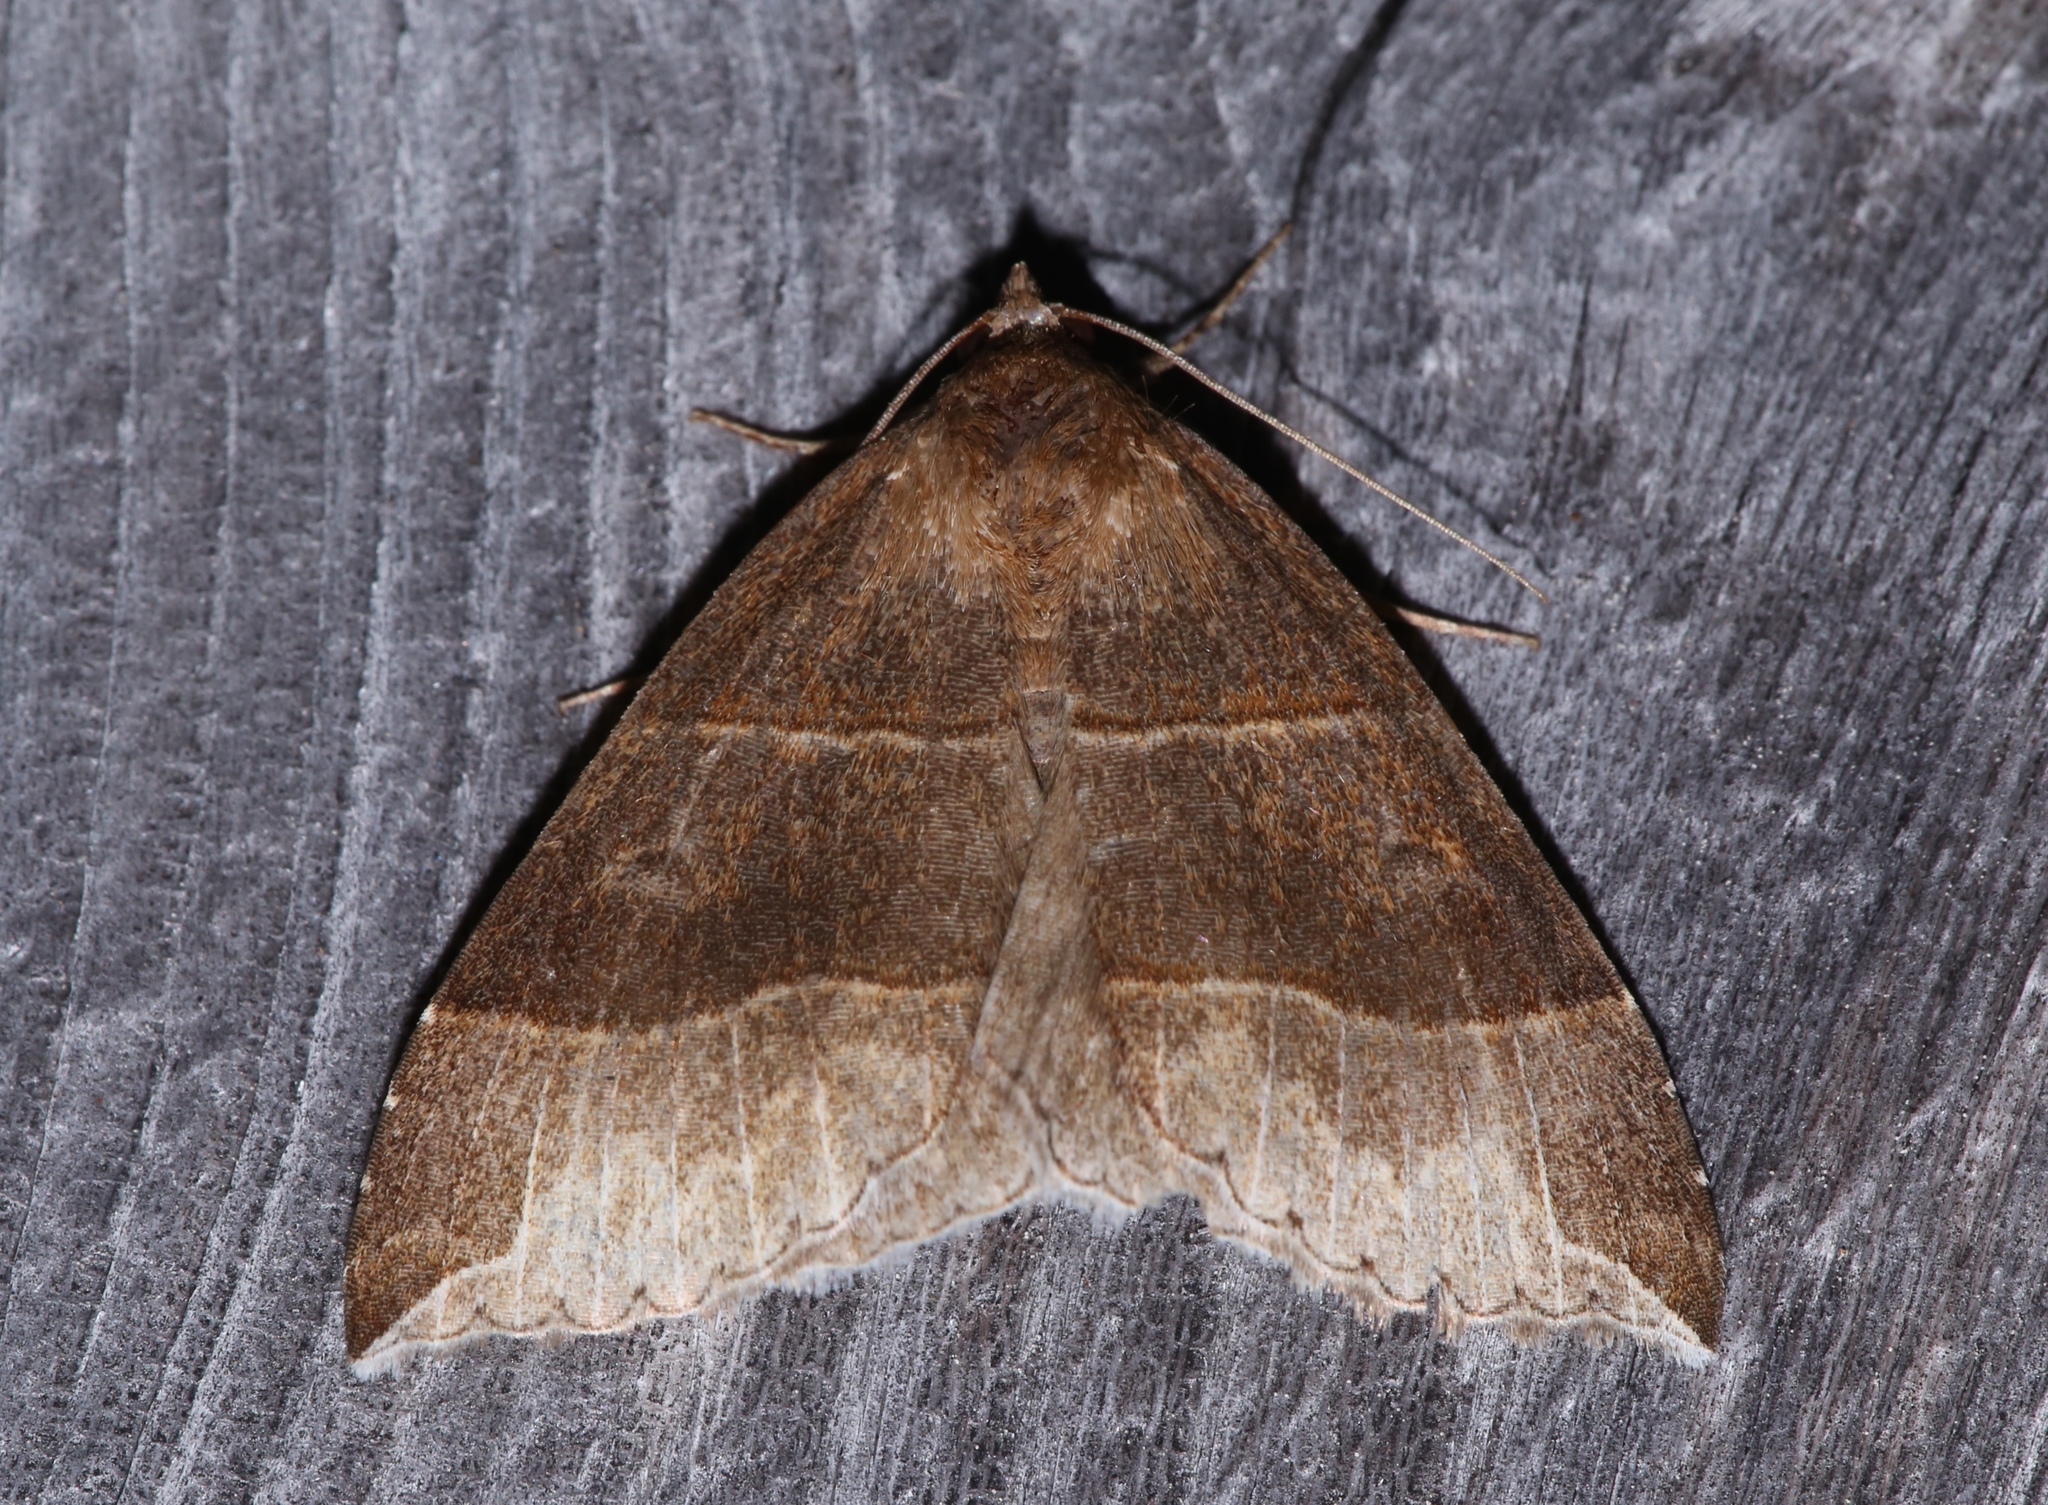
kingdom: Animalia
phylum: Arthropoda
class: Insecta
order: Lepidoptera
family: Erebidae
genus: Parallelia
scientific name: Parallelia bistriaris
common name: Maple looper moth
